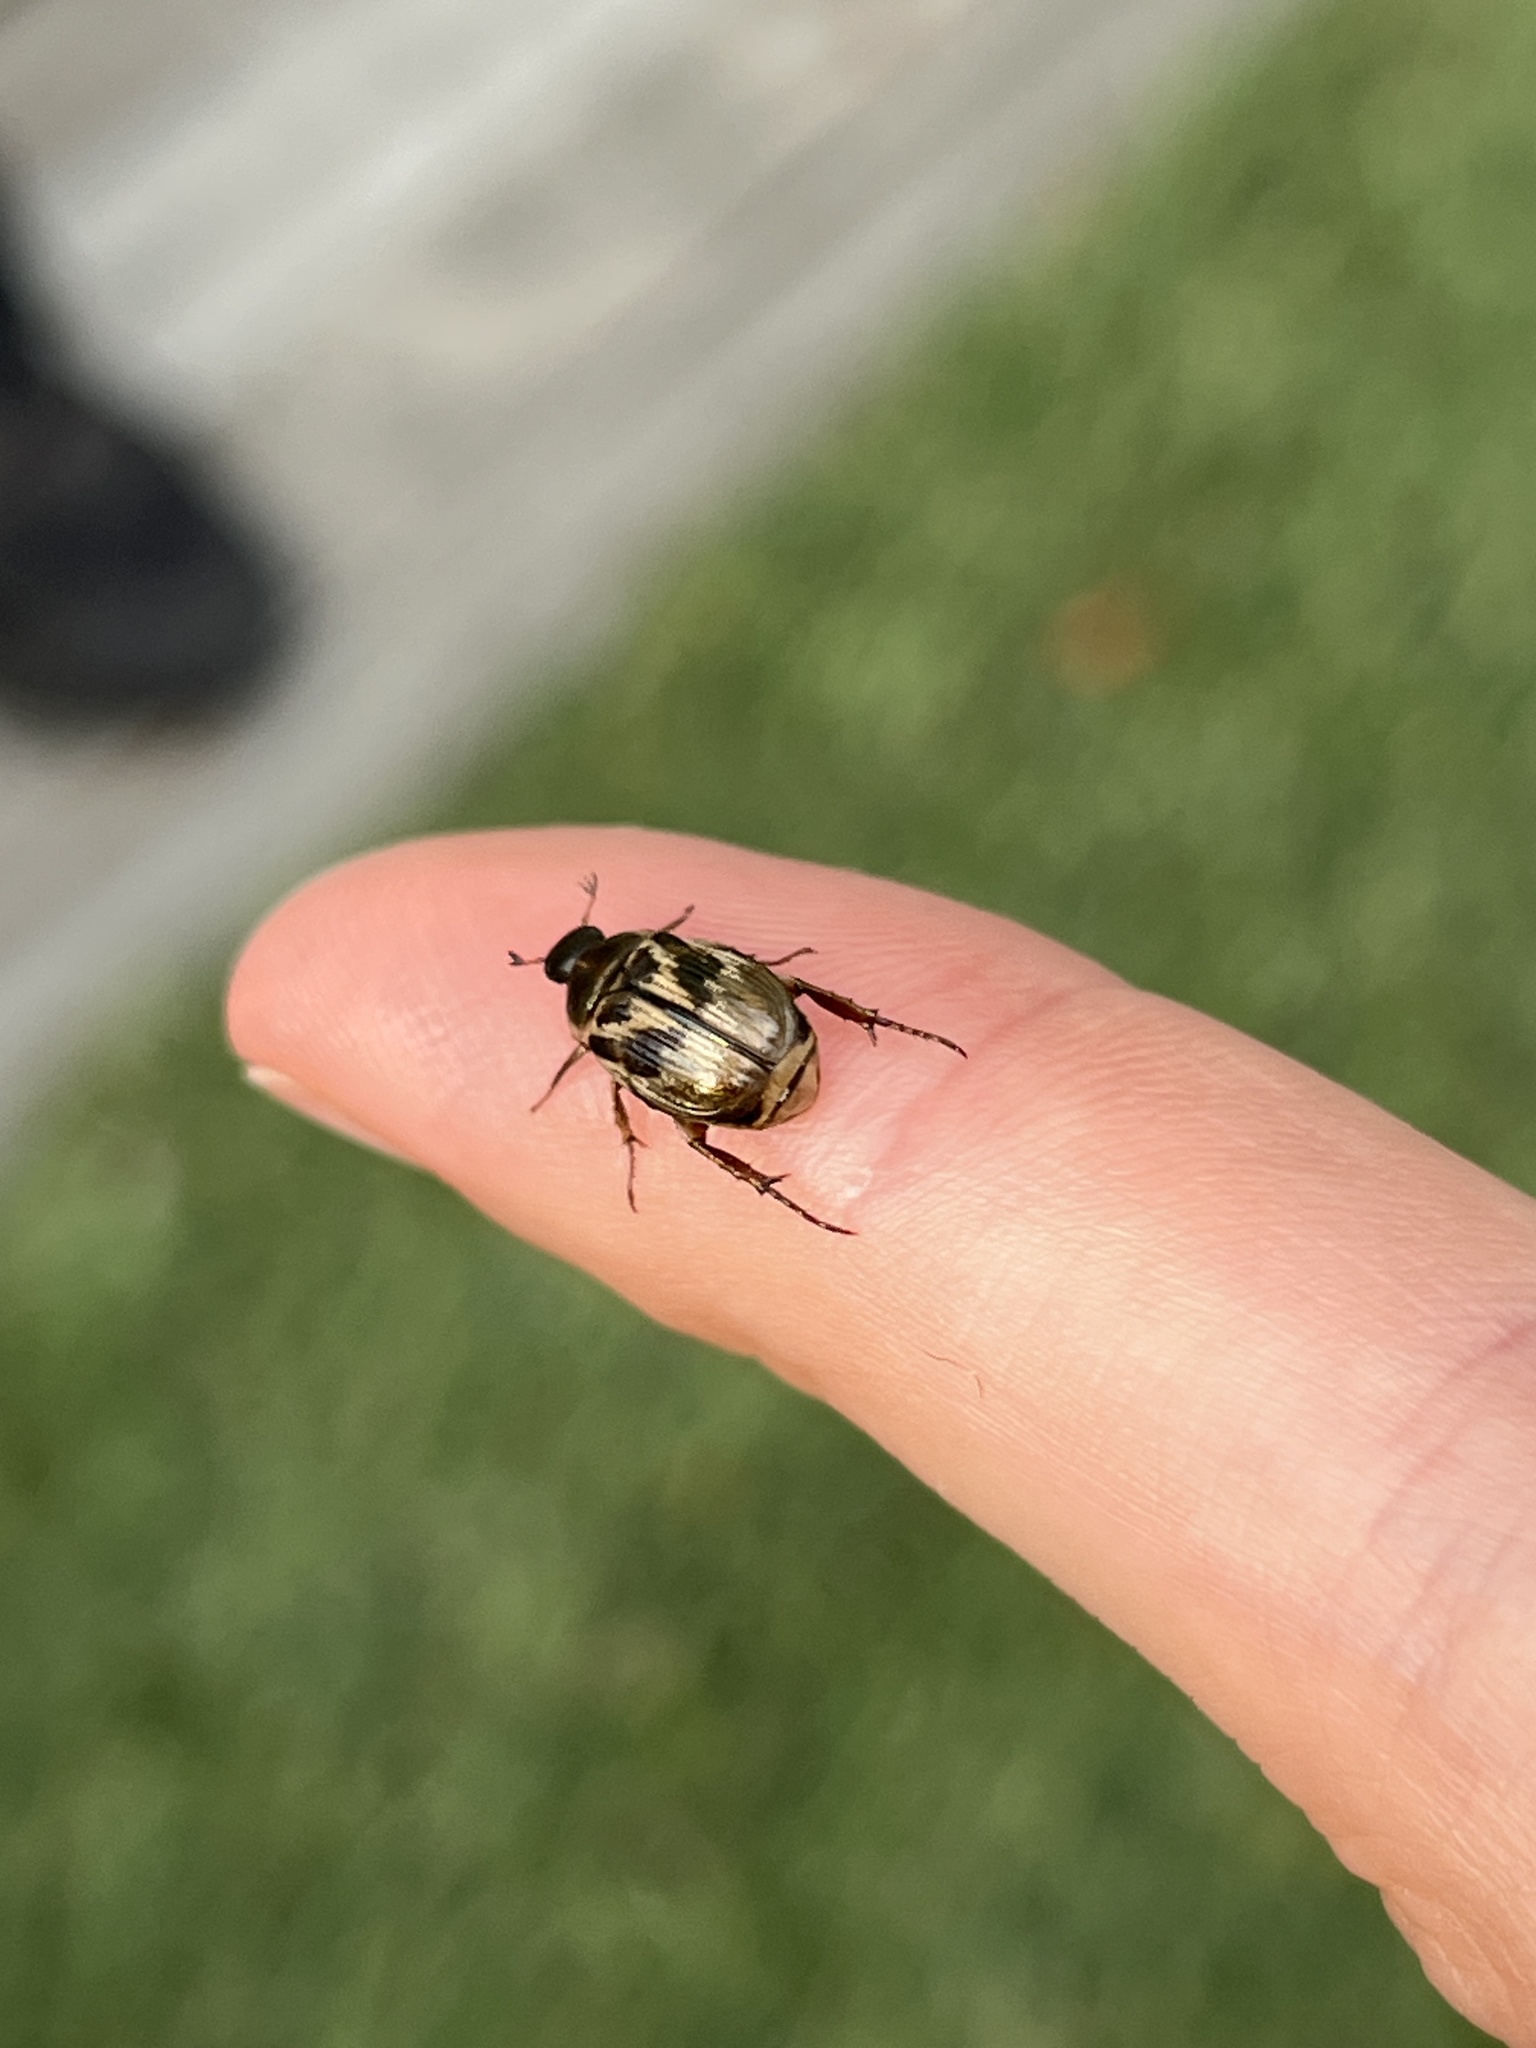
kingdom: Animalia
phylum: Arthropoda
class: Insecta
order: Coleoptera
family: Scarabaeidae
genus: Exomala
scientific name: Exomala orientalis
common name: Oriental beetle
